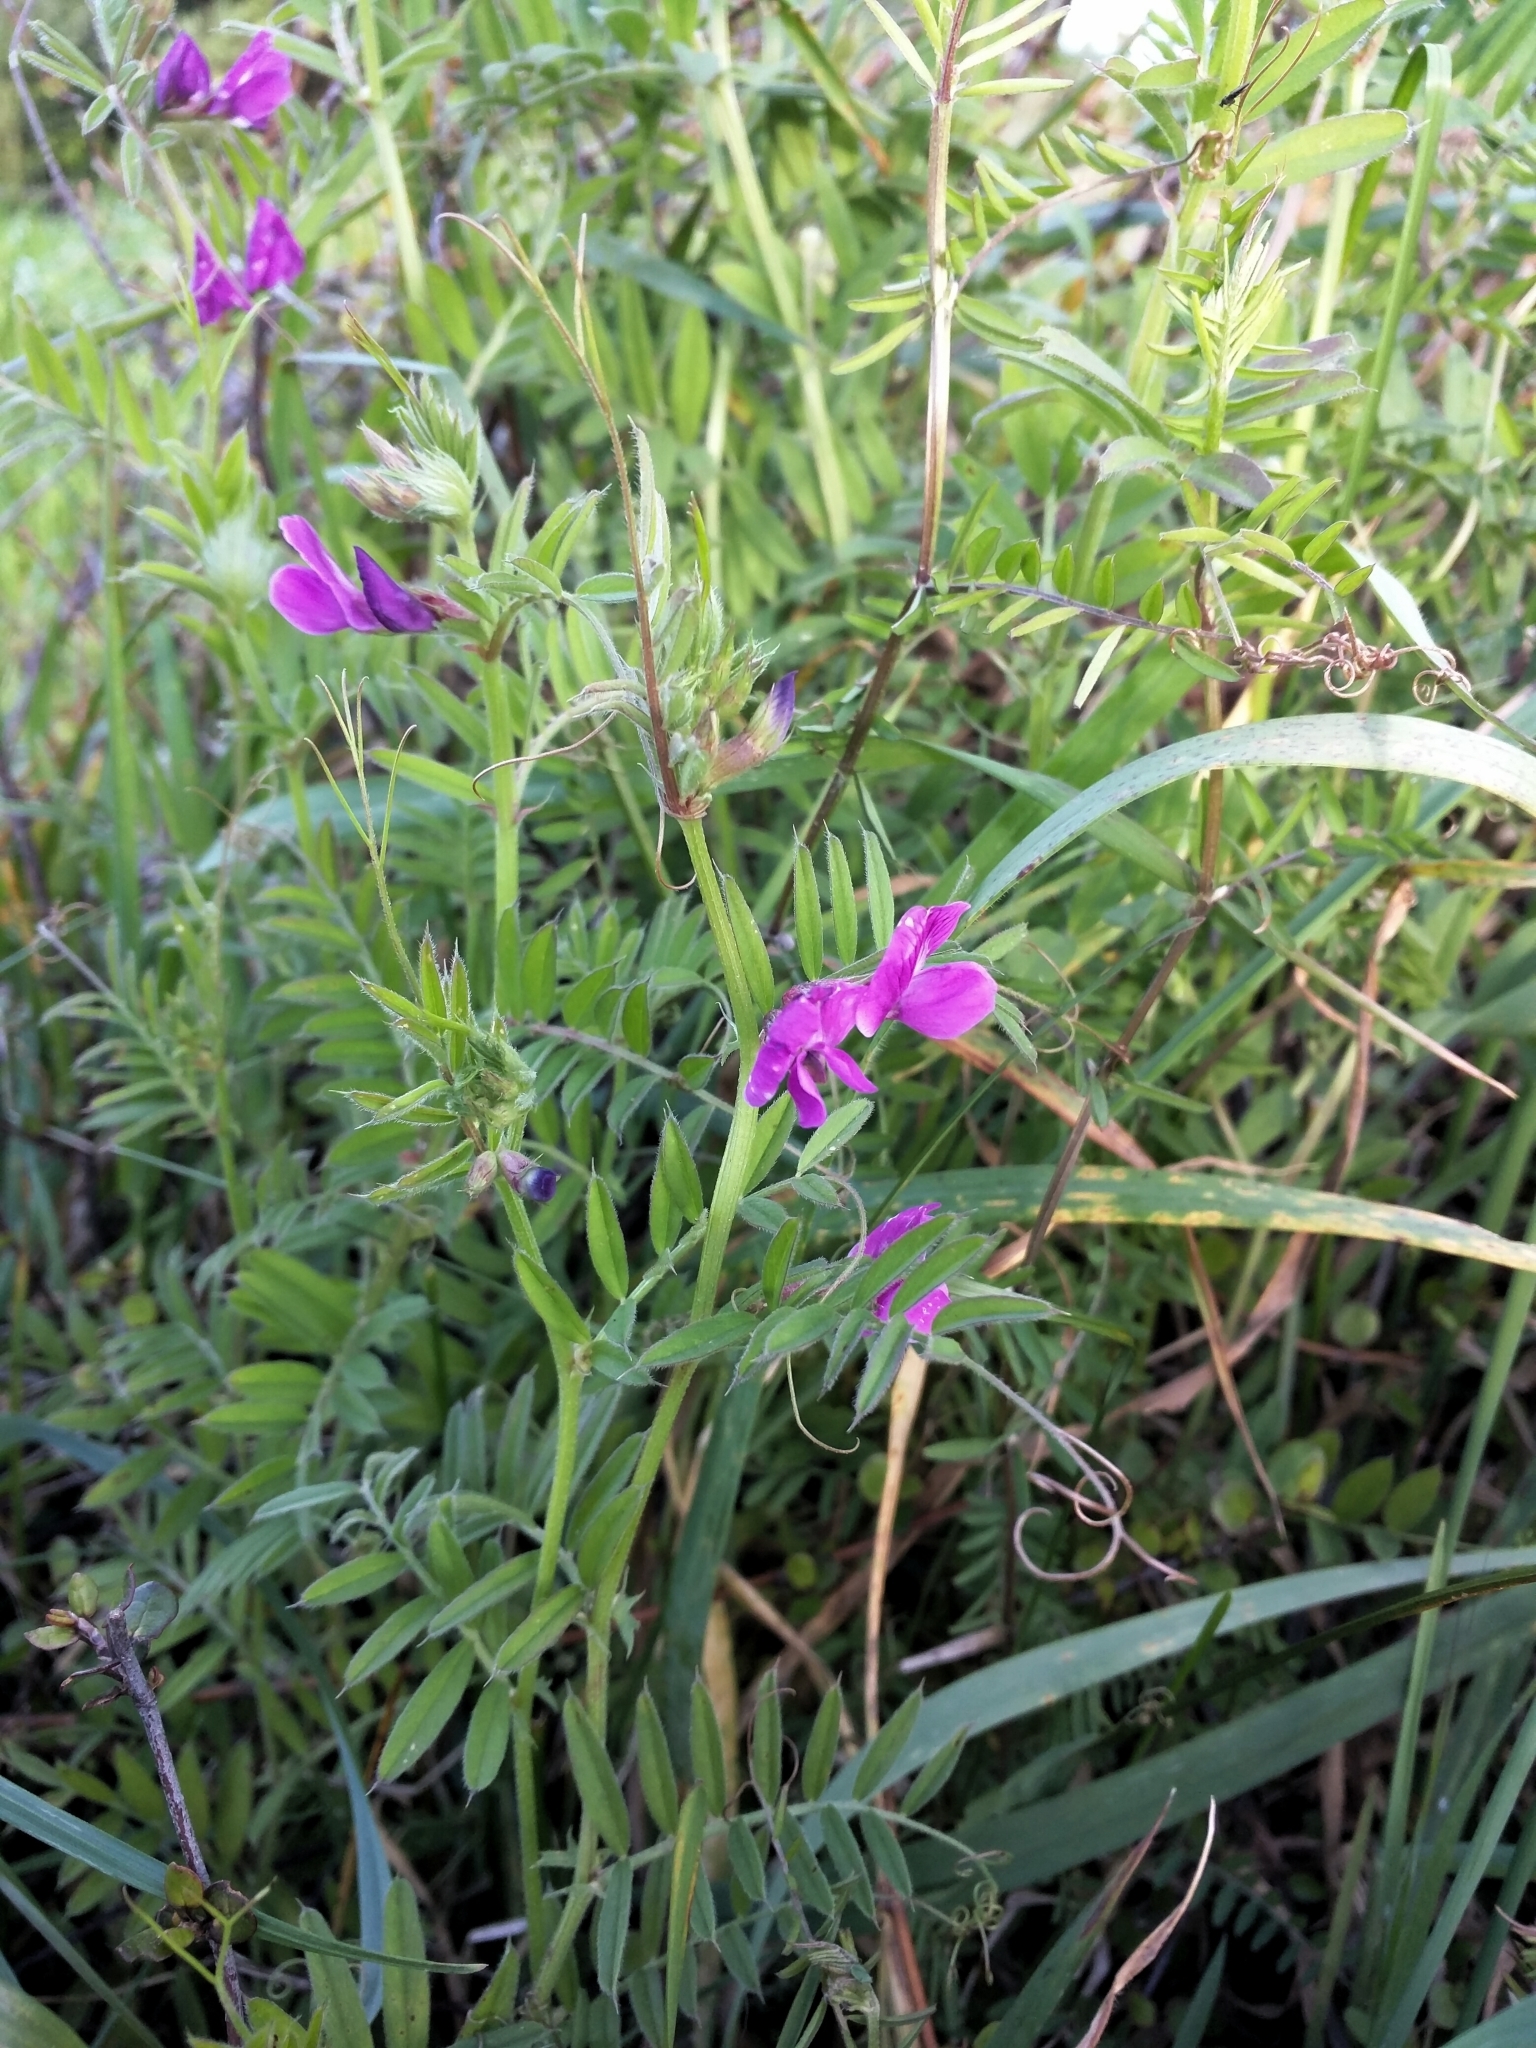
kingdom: Plantae
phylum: Tracheophyta
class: Magnoliopsida
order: Fabales
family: Fabaceae
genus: Vicia
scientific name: Vicia sativa
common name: Garden vetch
